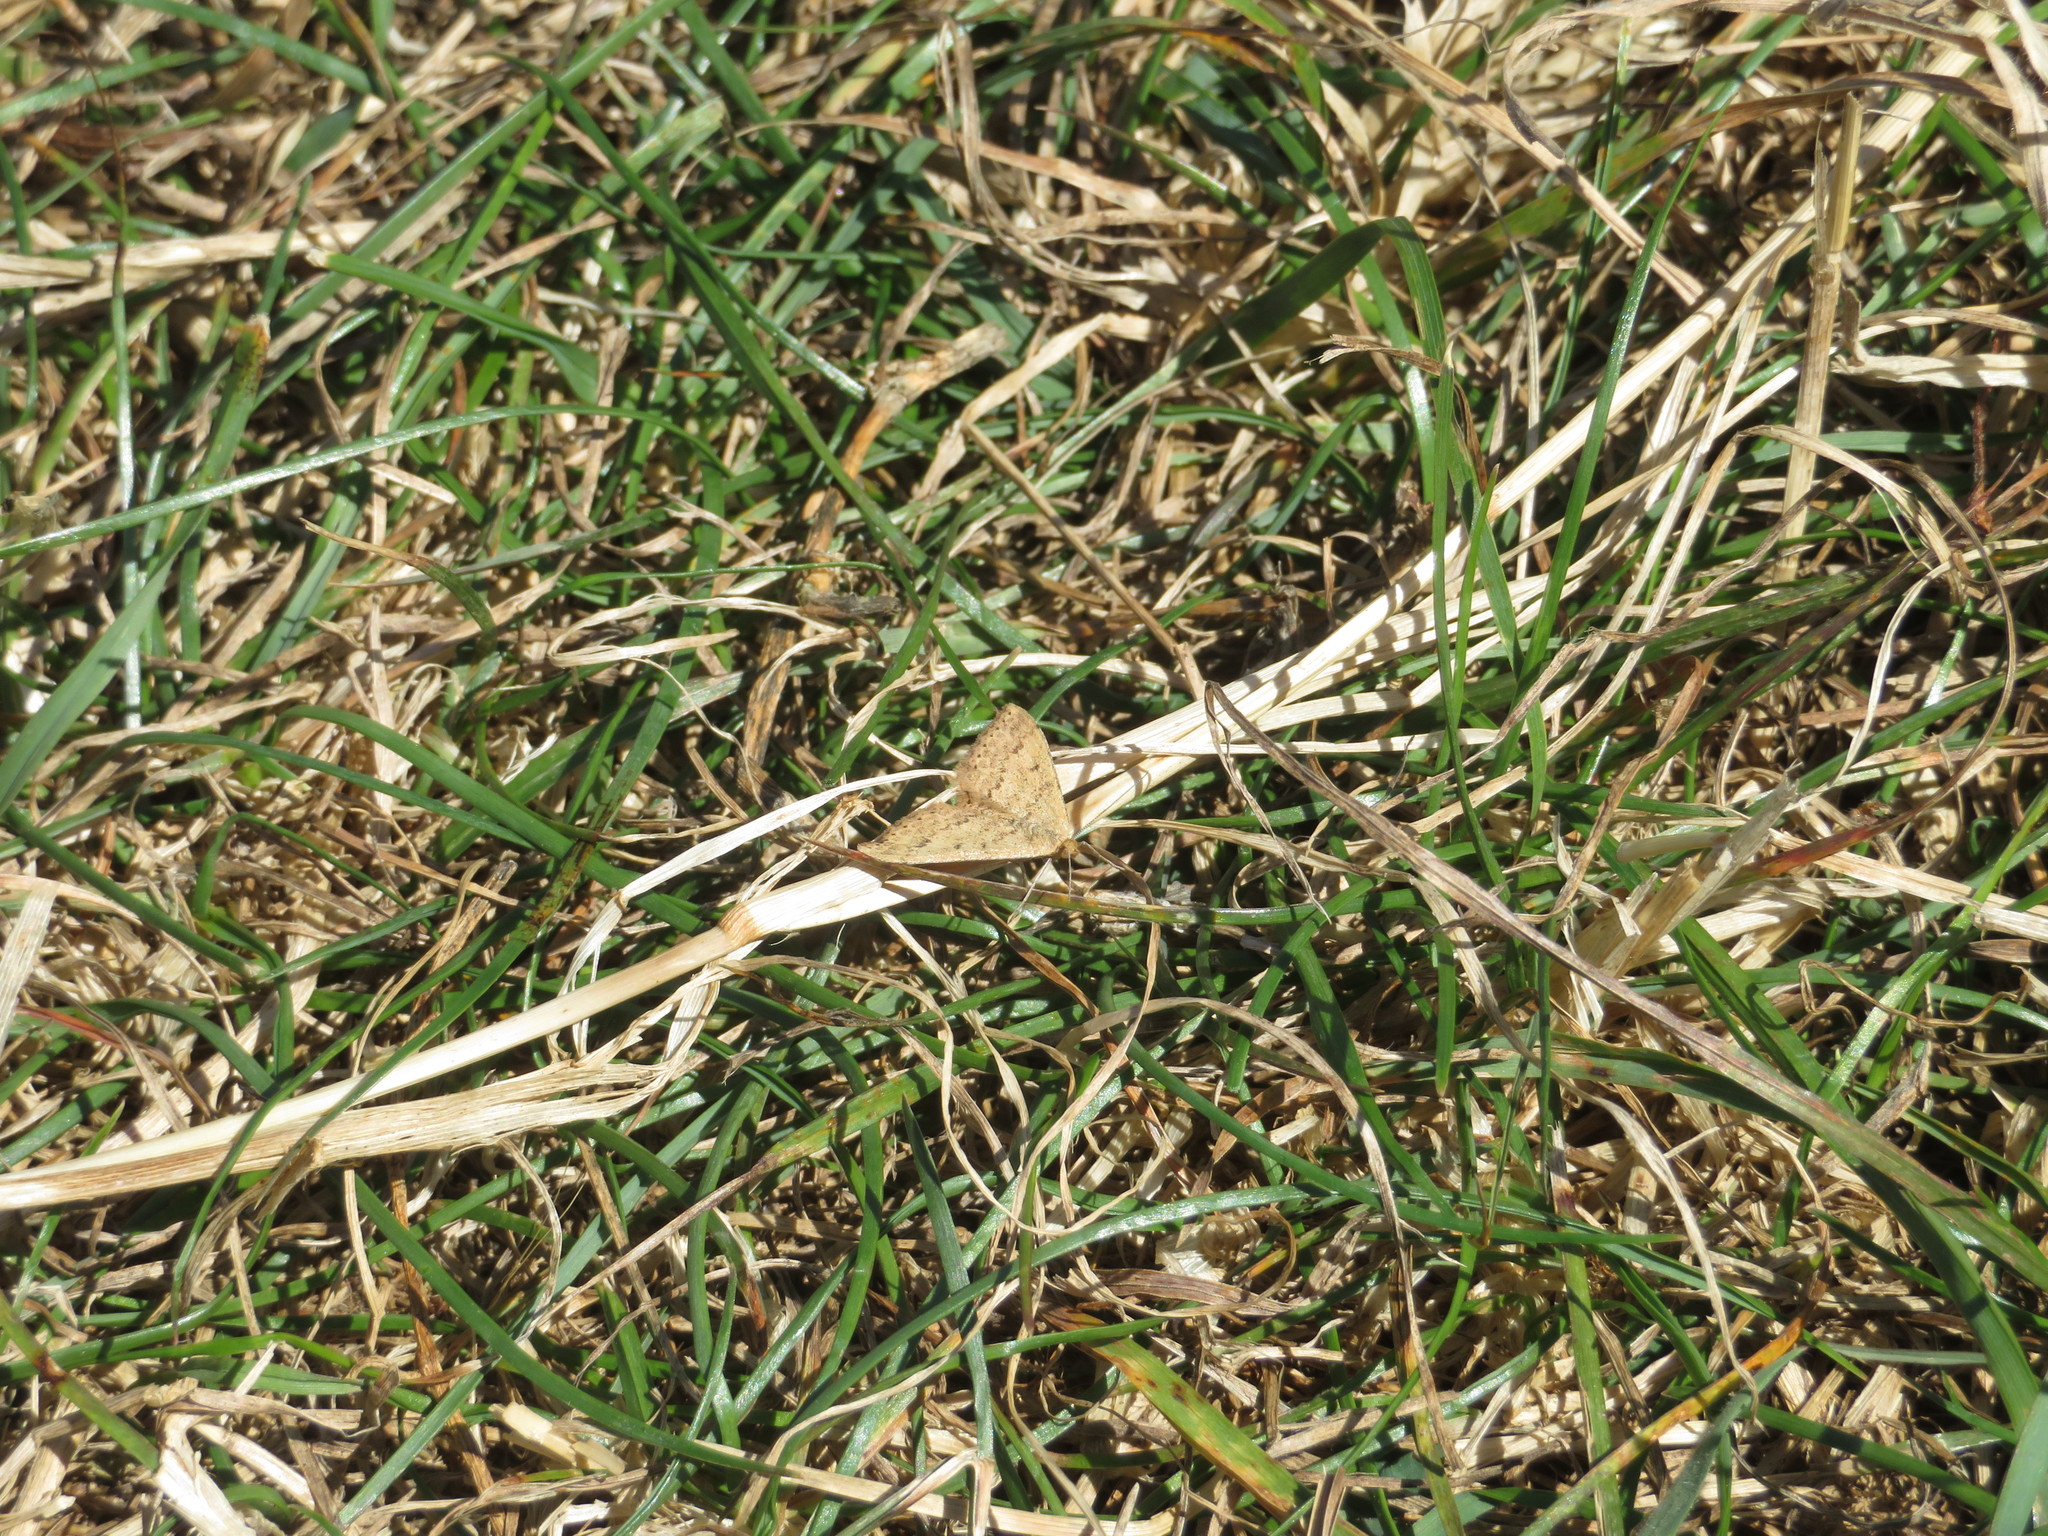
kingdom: Animalia
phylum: Arthropoda
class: Insecta
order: Lepidoptera
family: Geometridae
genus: Scopula
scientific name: Scopula rubraria
